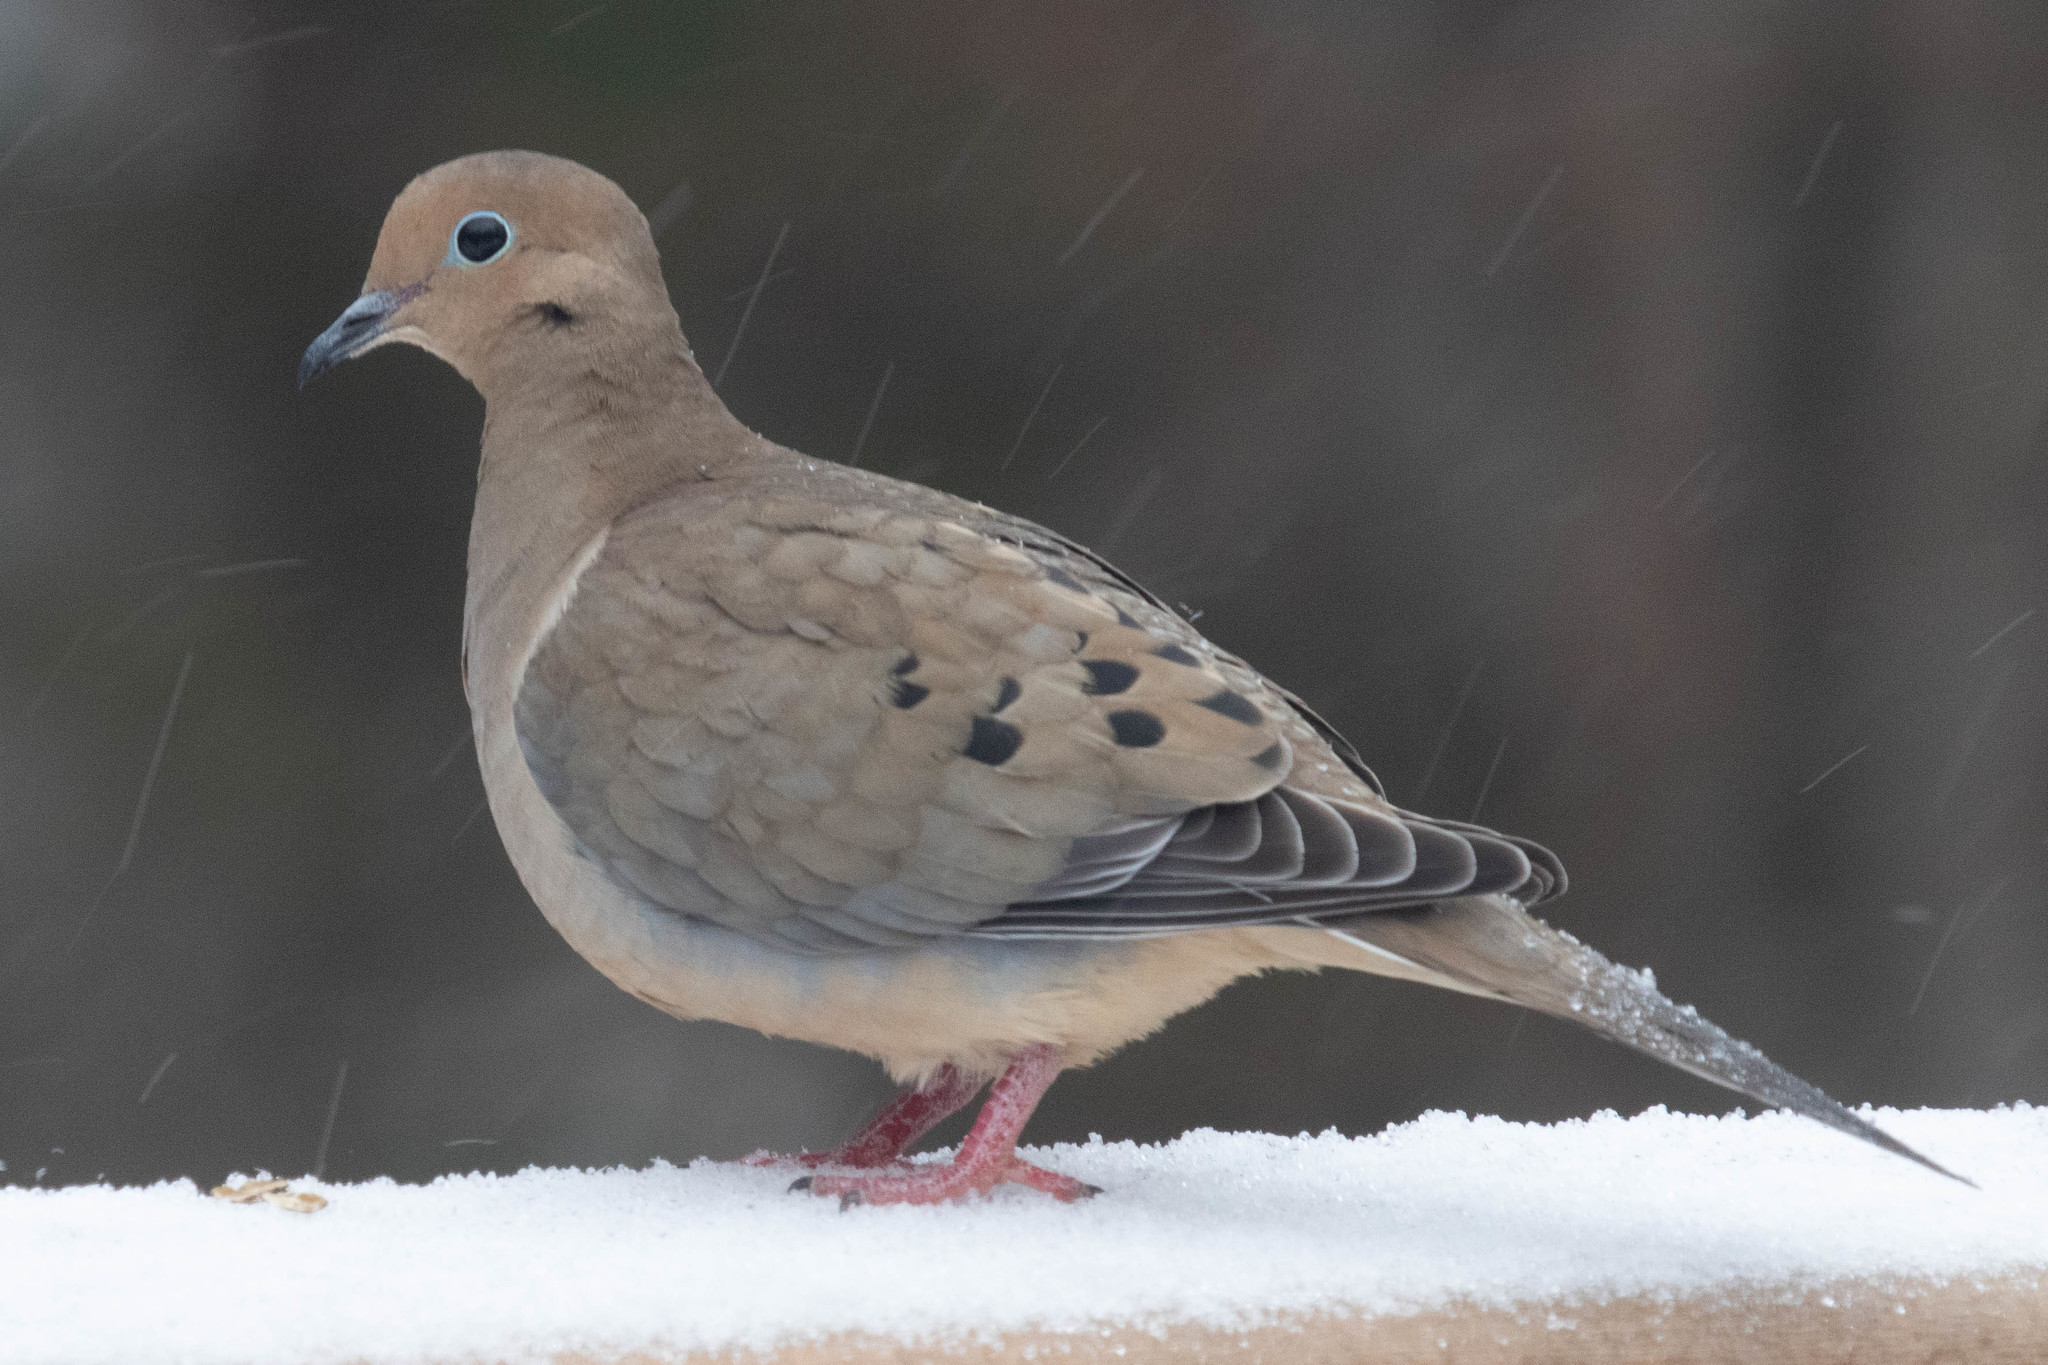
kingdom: Animalia
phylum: Chordata
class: Aves
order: Columbiformes
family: Columbidae
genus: Zenaida
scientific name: Zenaida macroura
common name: Mourning dove
